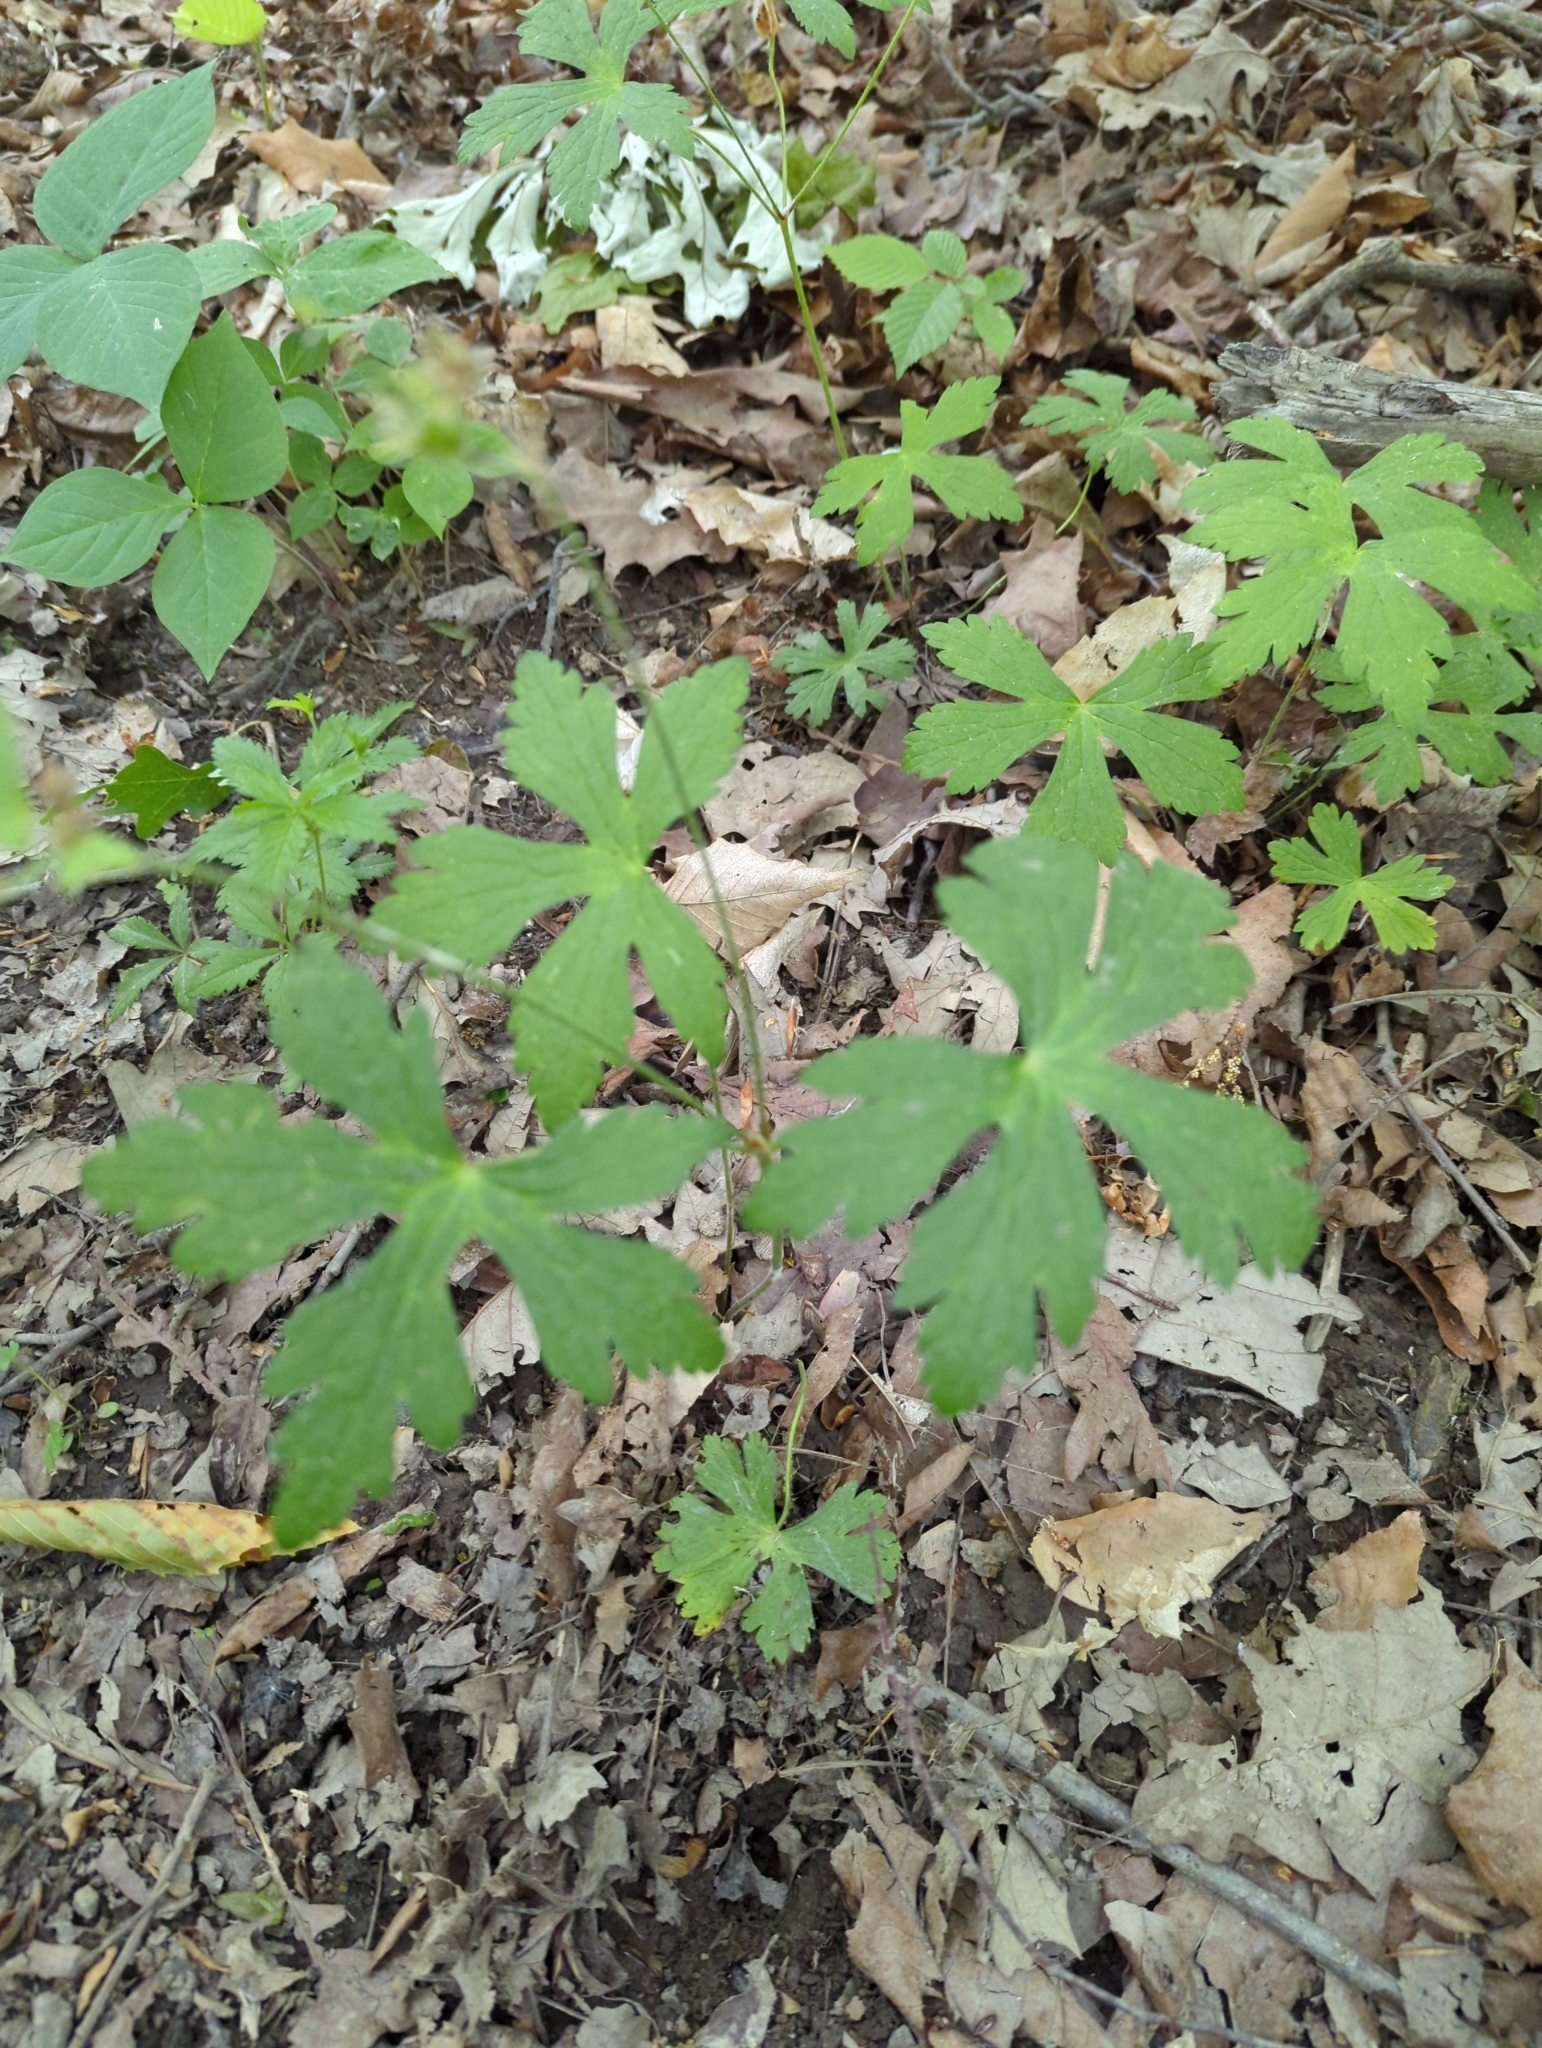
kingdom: Plantae
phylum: Tracheophyta
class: Magnoliopsida
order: Geraniales
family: Geraniaceae
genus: Geranium
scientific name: Geranium maculatum
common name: Spotted geranium
